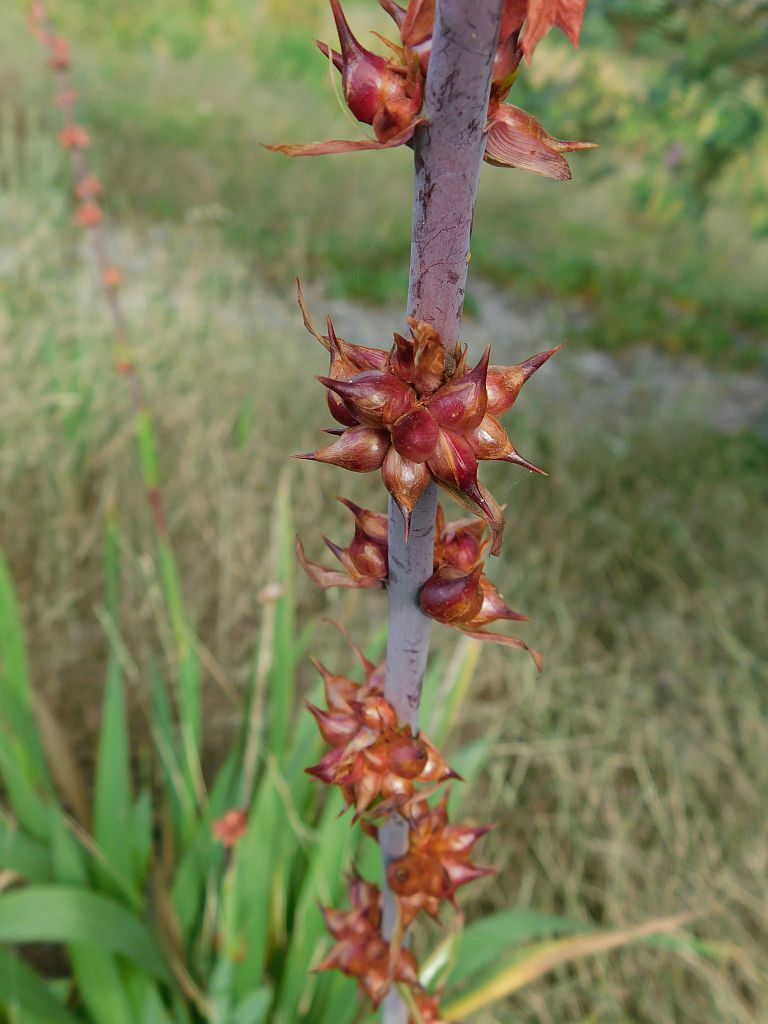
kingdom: Plantae
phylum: Tracheophyta
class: Liliopsida
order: Asparagales
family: Iridaceae
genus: Watsonia
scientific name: Watsonia meriana
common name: Bulbil bugle-lily
